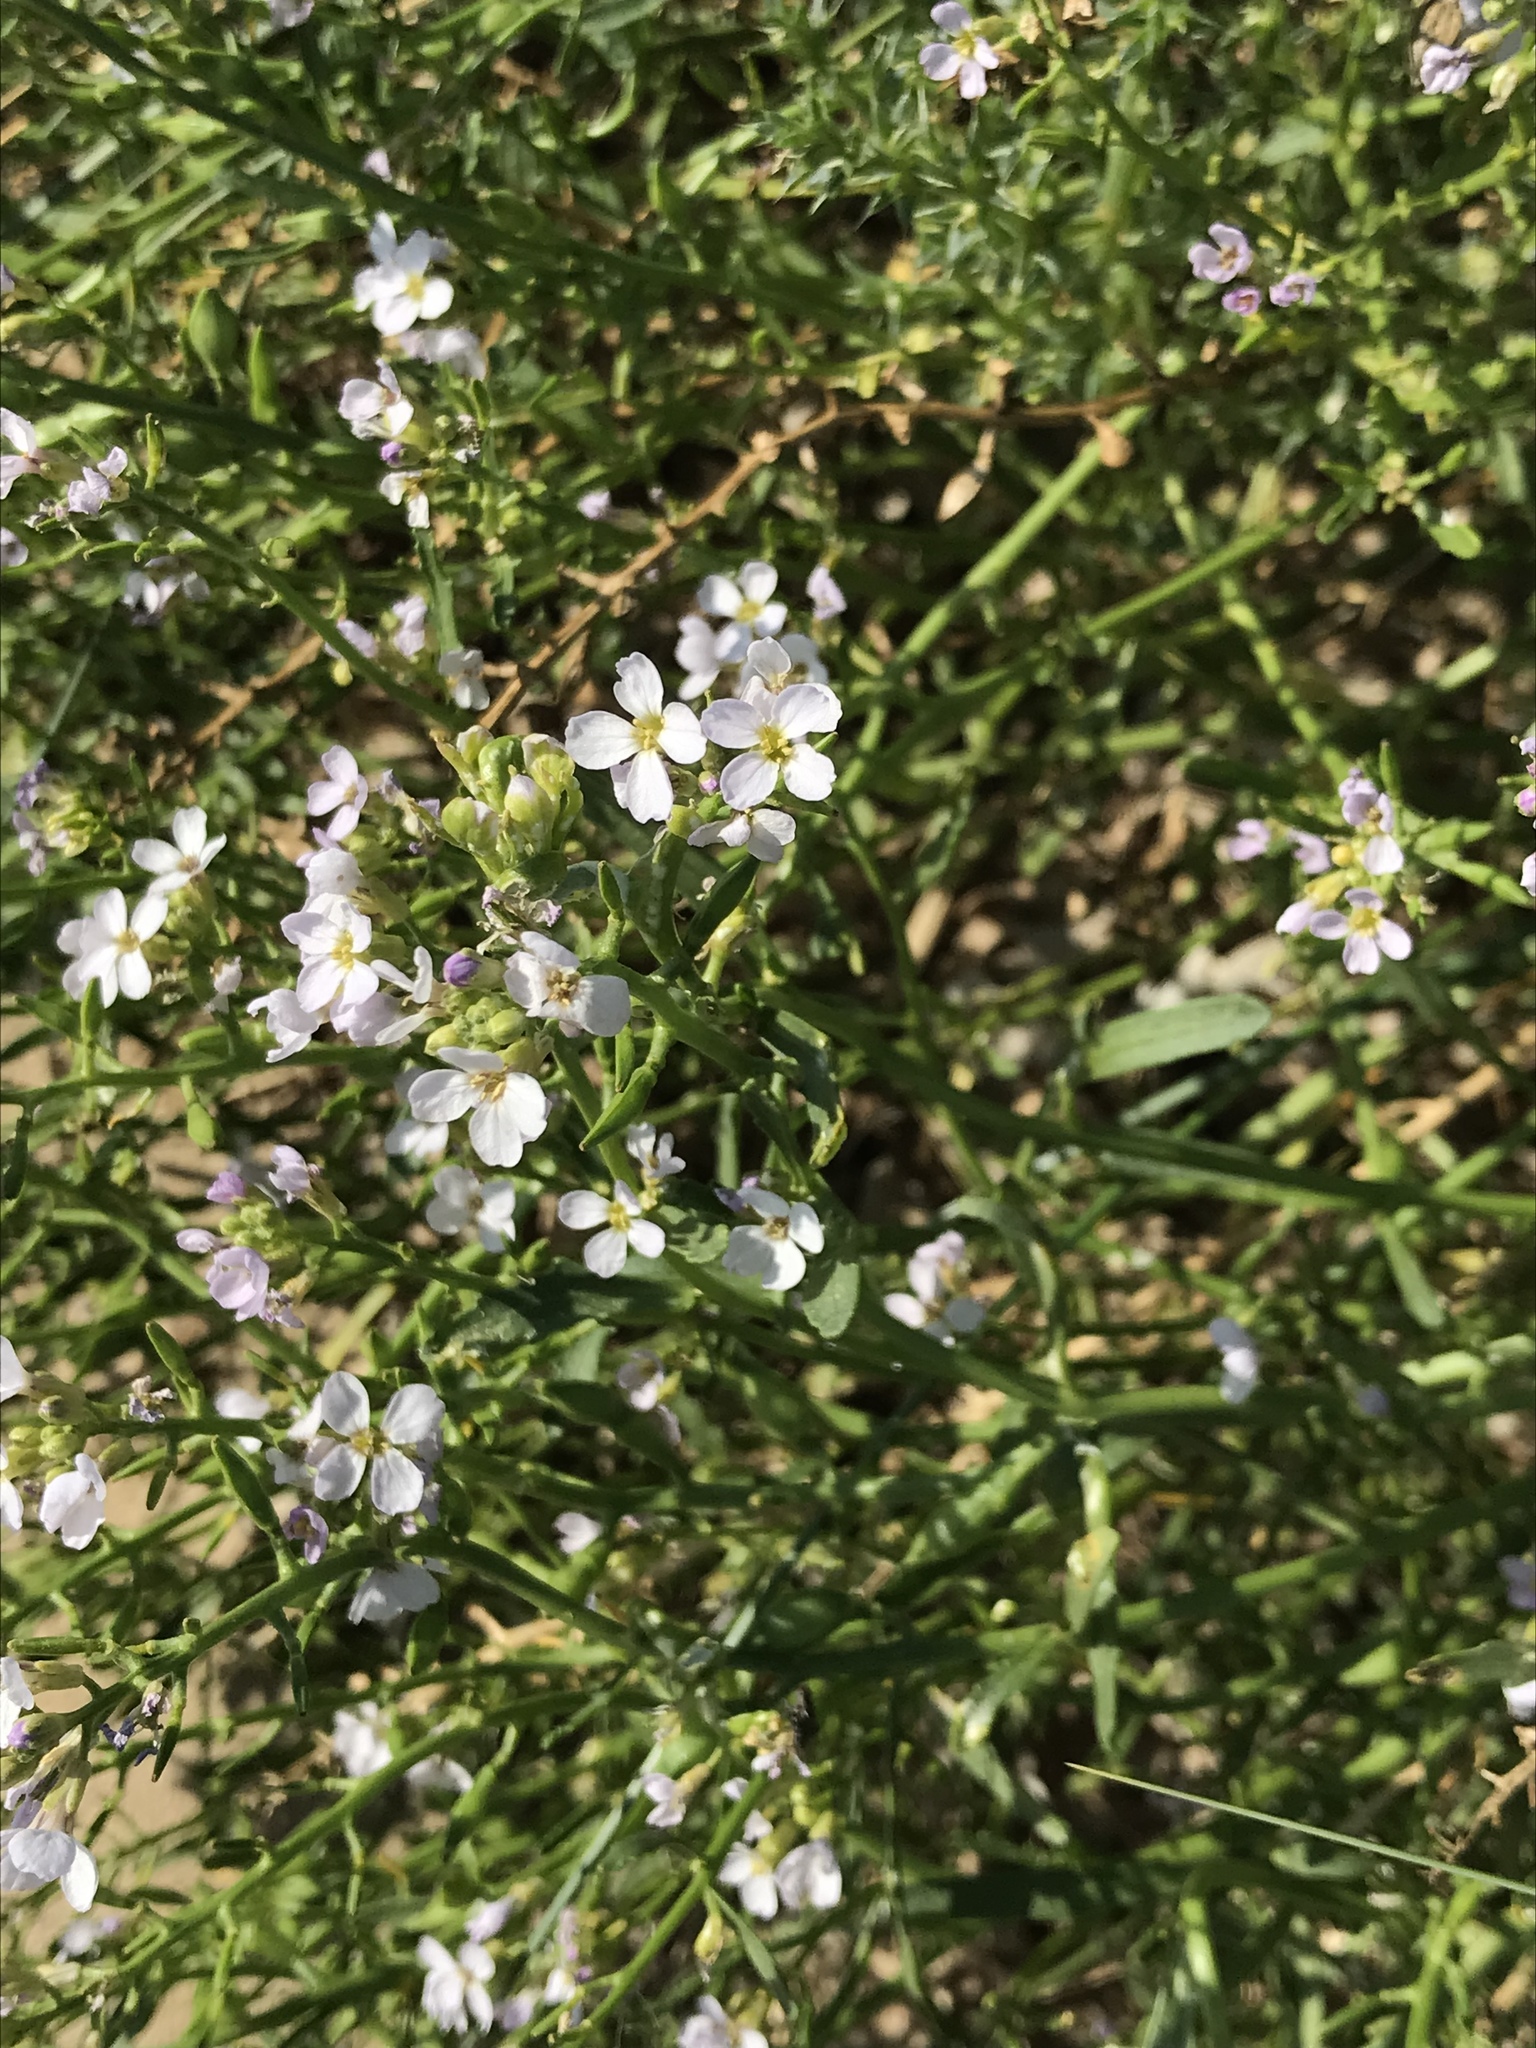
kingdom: Plantae
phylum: Tracheophyta
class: Magnoliopsida
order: Brassicales
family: Brassicaceae
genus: Cakile
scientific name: Cakile maritima
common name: Sea rocket
